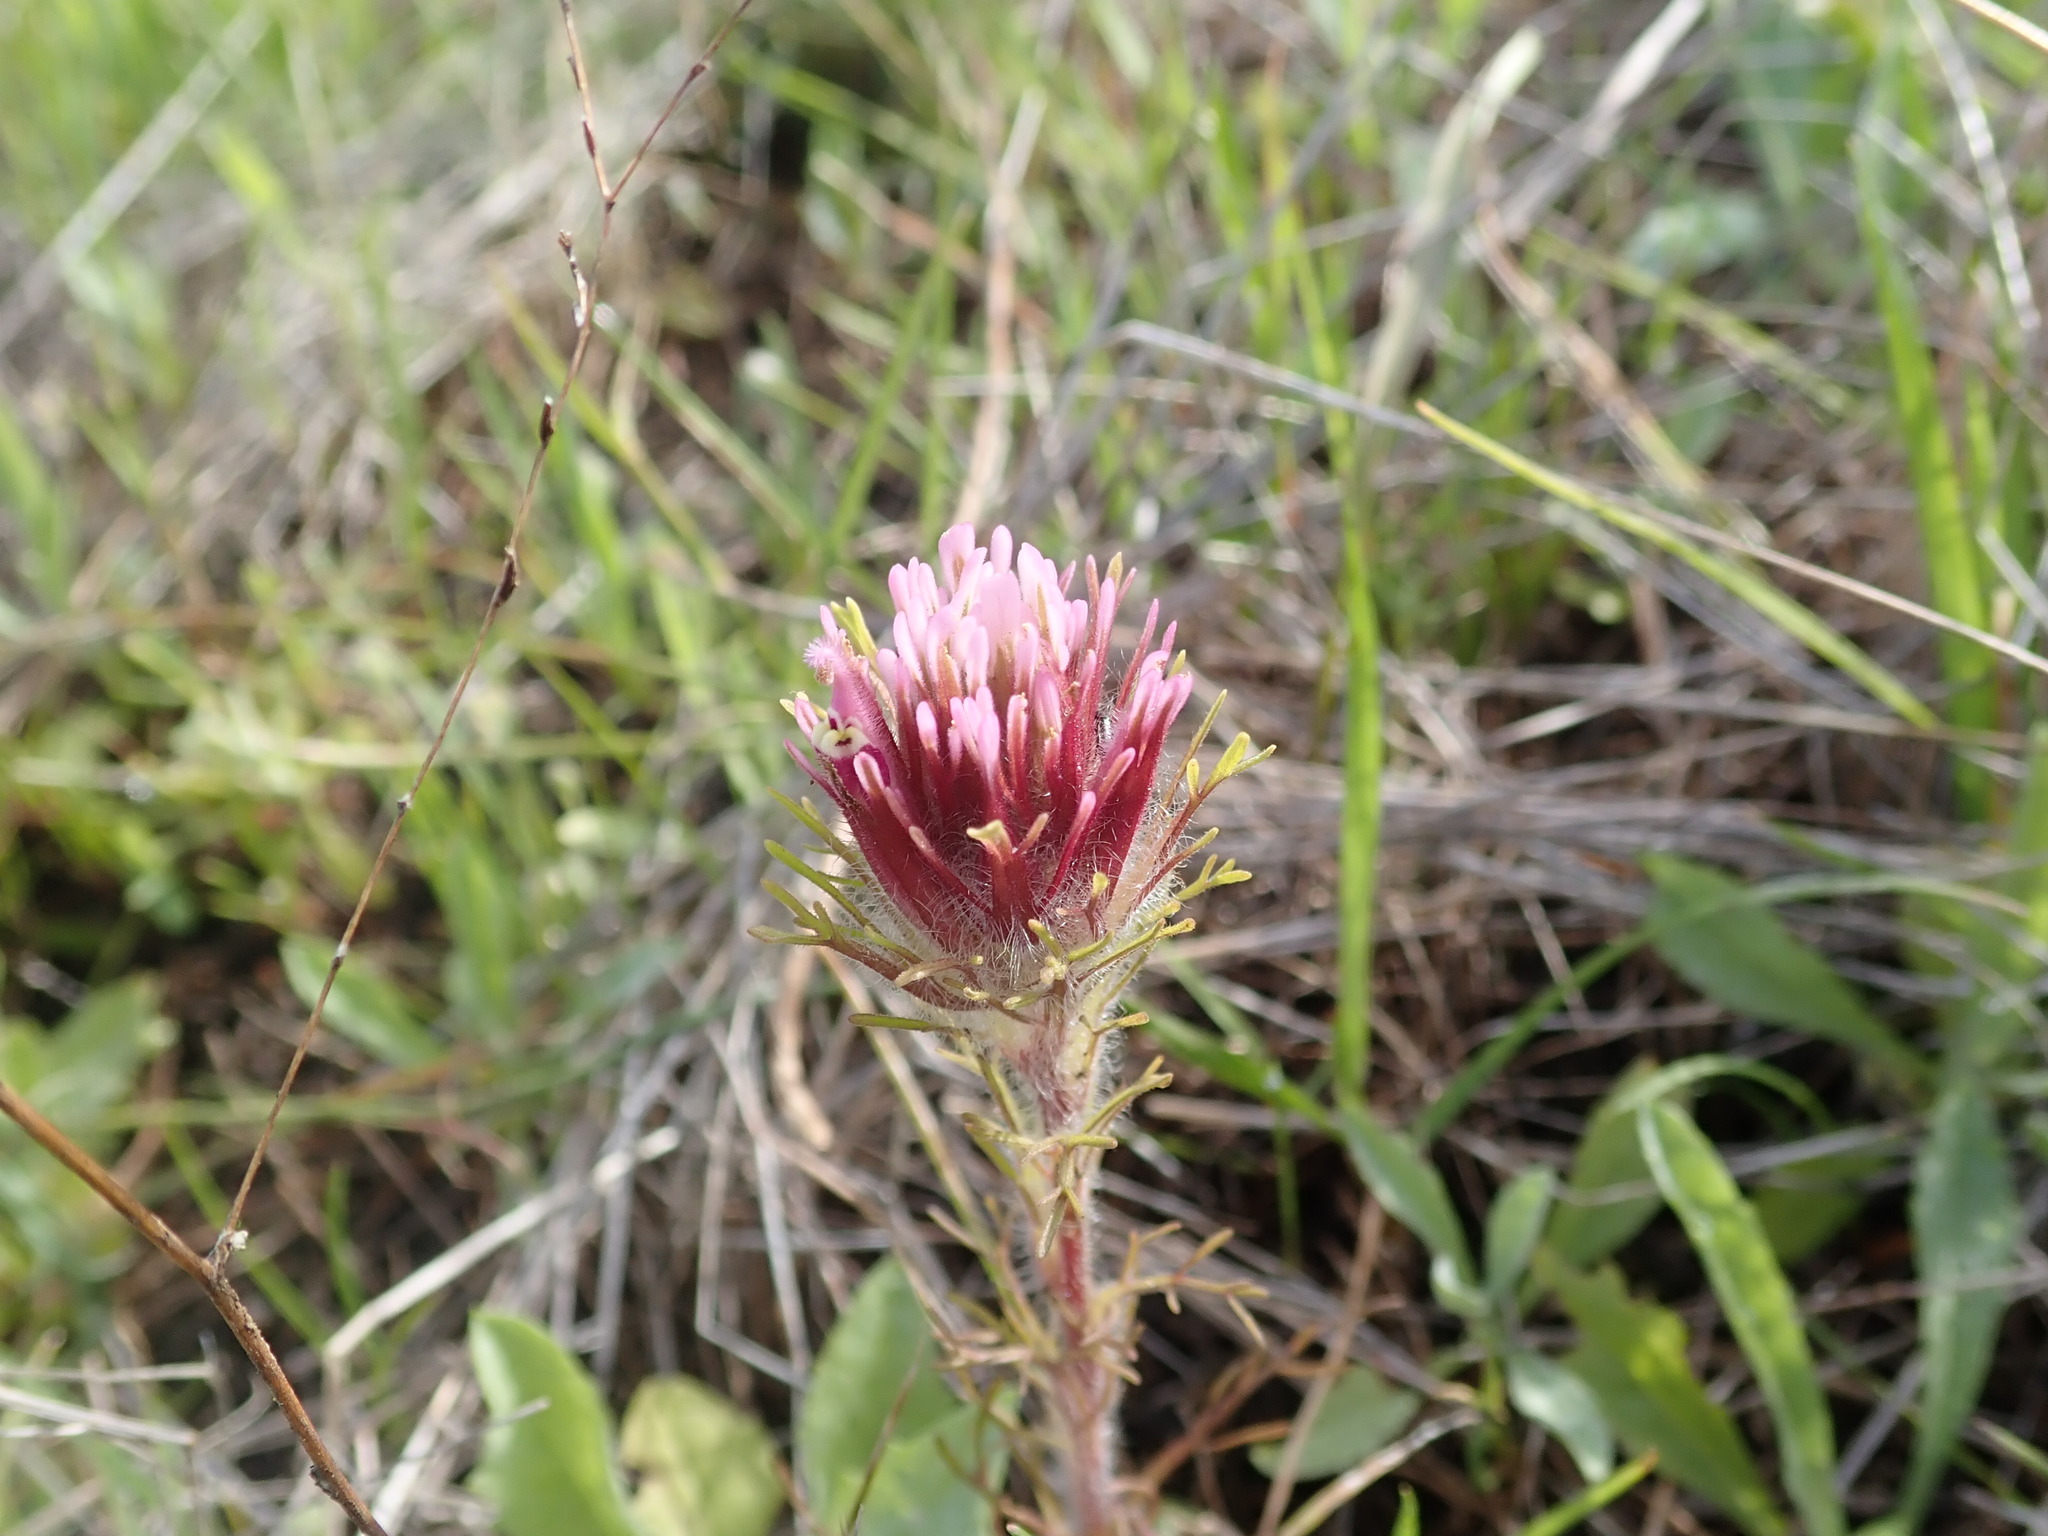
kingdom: Plantae
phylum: Tracheophyta
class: Magnoliopsida
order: Lamiales
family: Orobanchaceae
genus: Castilleja
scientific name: Castilleja exserta
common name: Purple owl-clover
